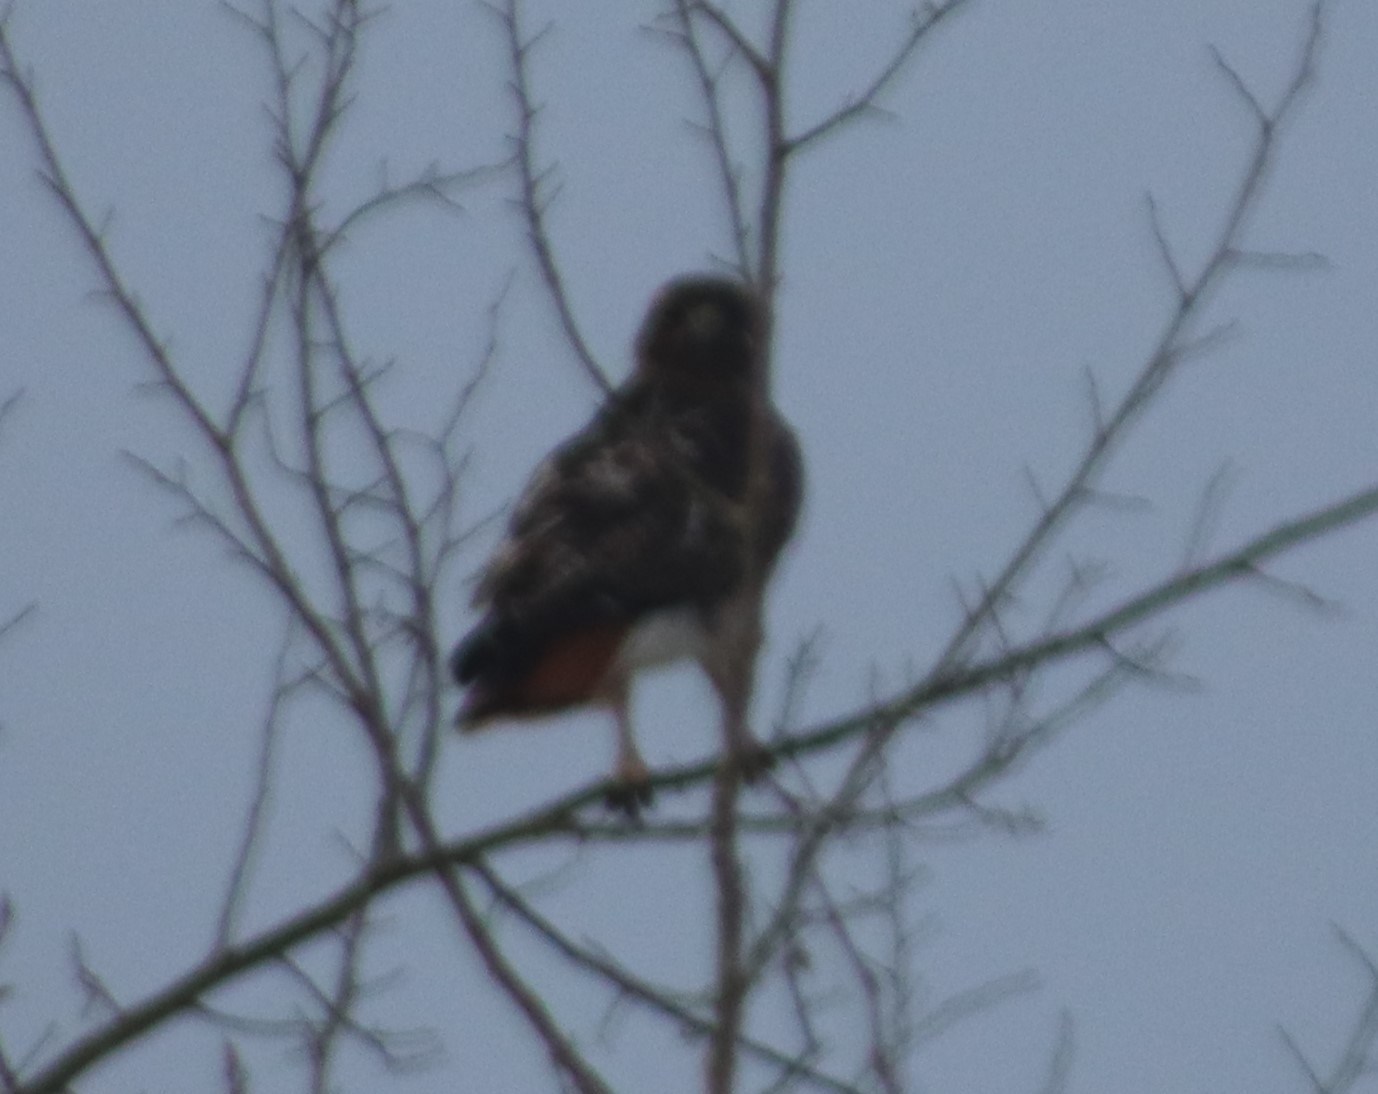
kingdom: Animalia
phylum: Chordata
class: Aves
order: Accipitriformes
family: Accipitridae
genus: Buteo
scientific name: Buteo jamaicensis
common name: Red-tailed hawk
